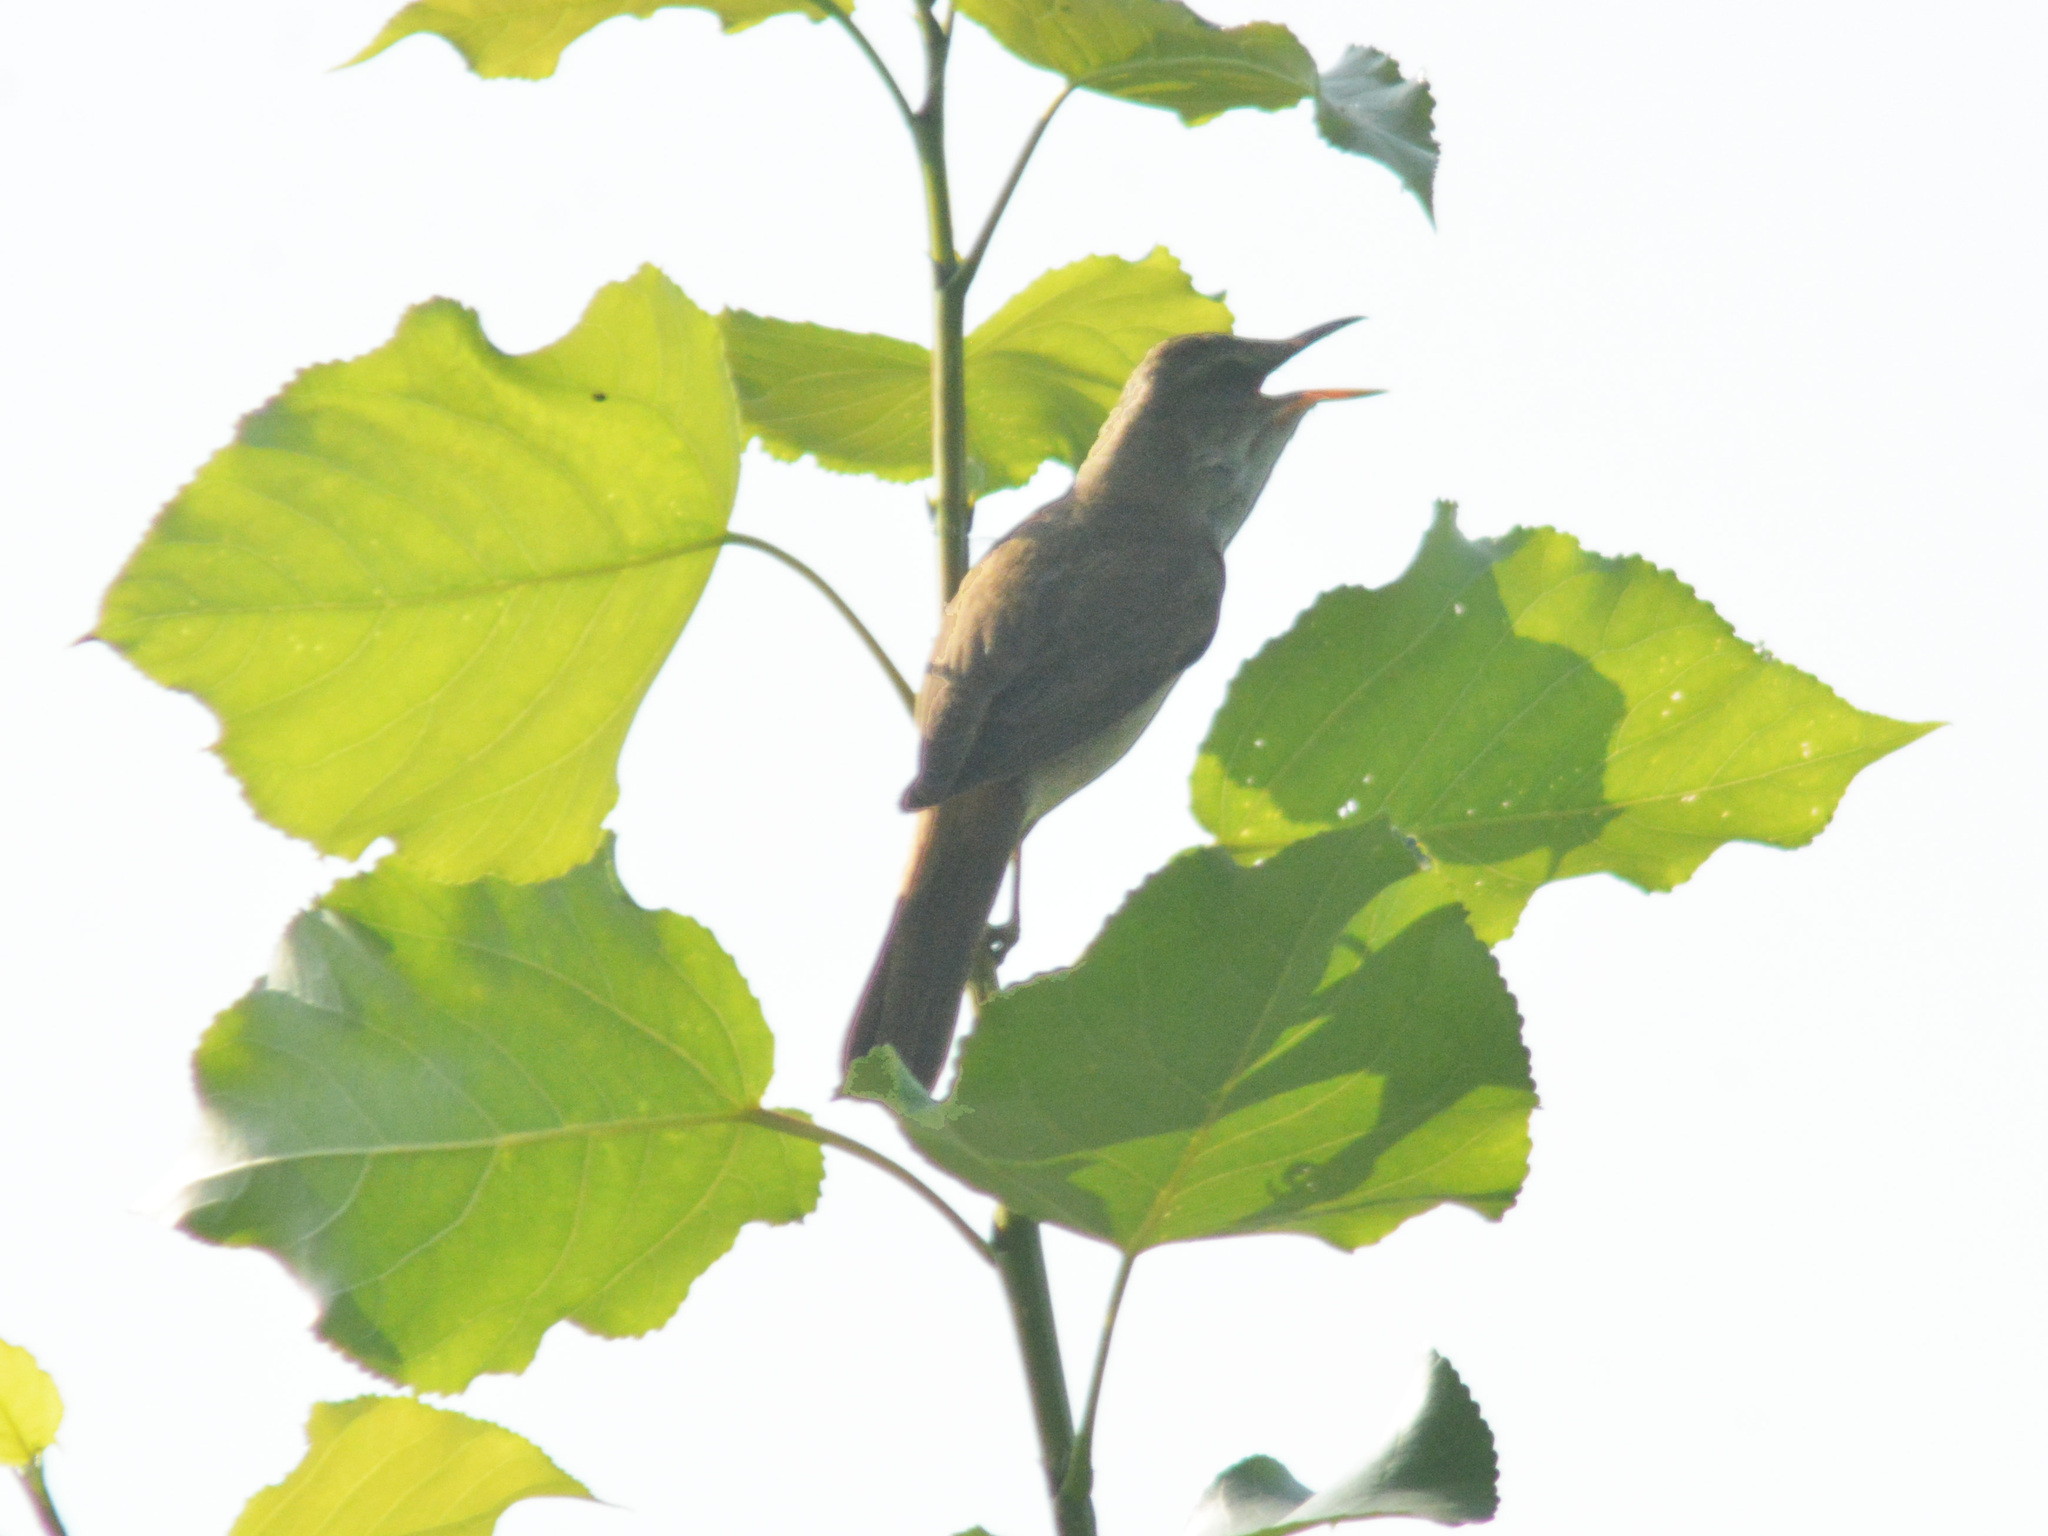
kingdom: Animalia
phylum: Chordata
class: Aves
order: Passeriformes
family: Acrocephalidae
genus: Acrocephalus
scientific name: Acrocephalus arundinaceus
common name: Great reed warbler
